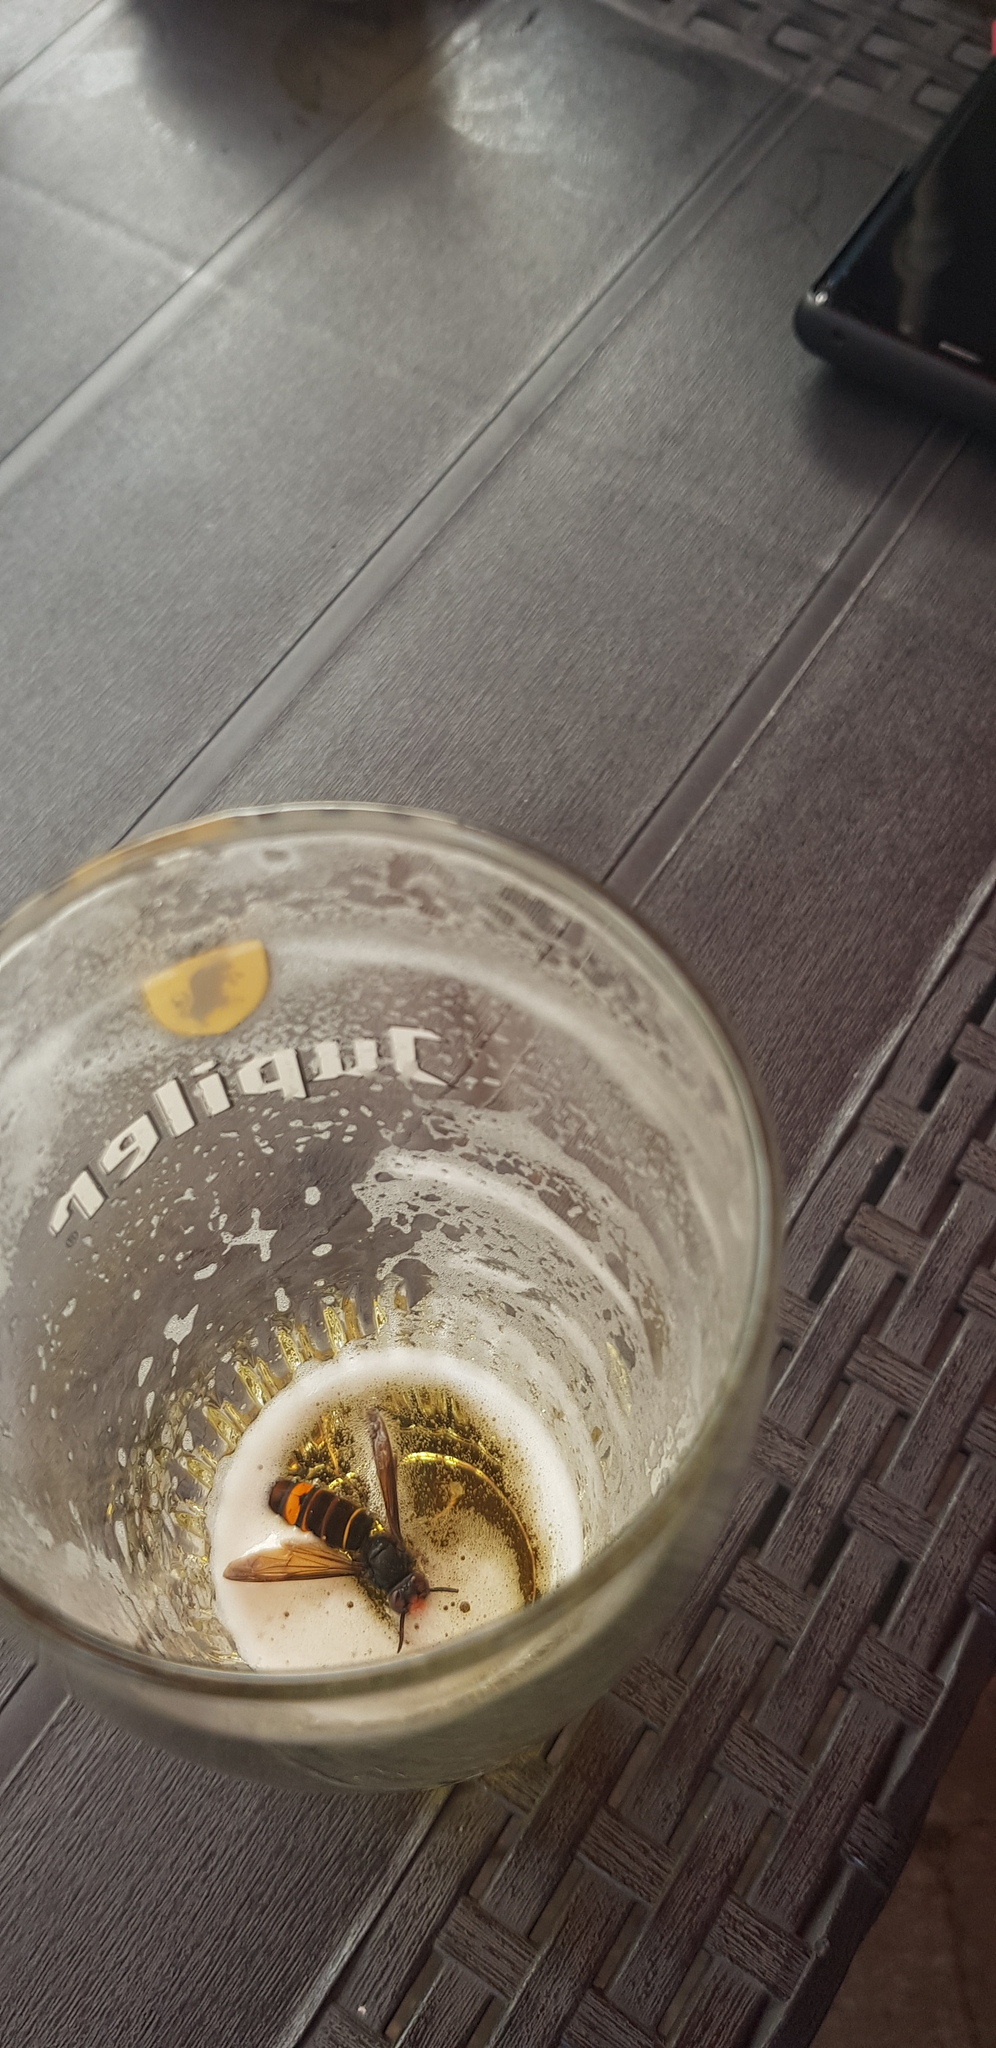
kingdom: Animalia
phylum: Arthropoda
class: Insecta
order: Hymenoptera
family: Vespidae
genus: Vespa
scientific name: Vespa velutina
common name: Asian hornet
